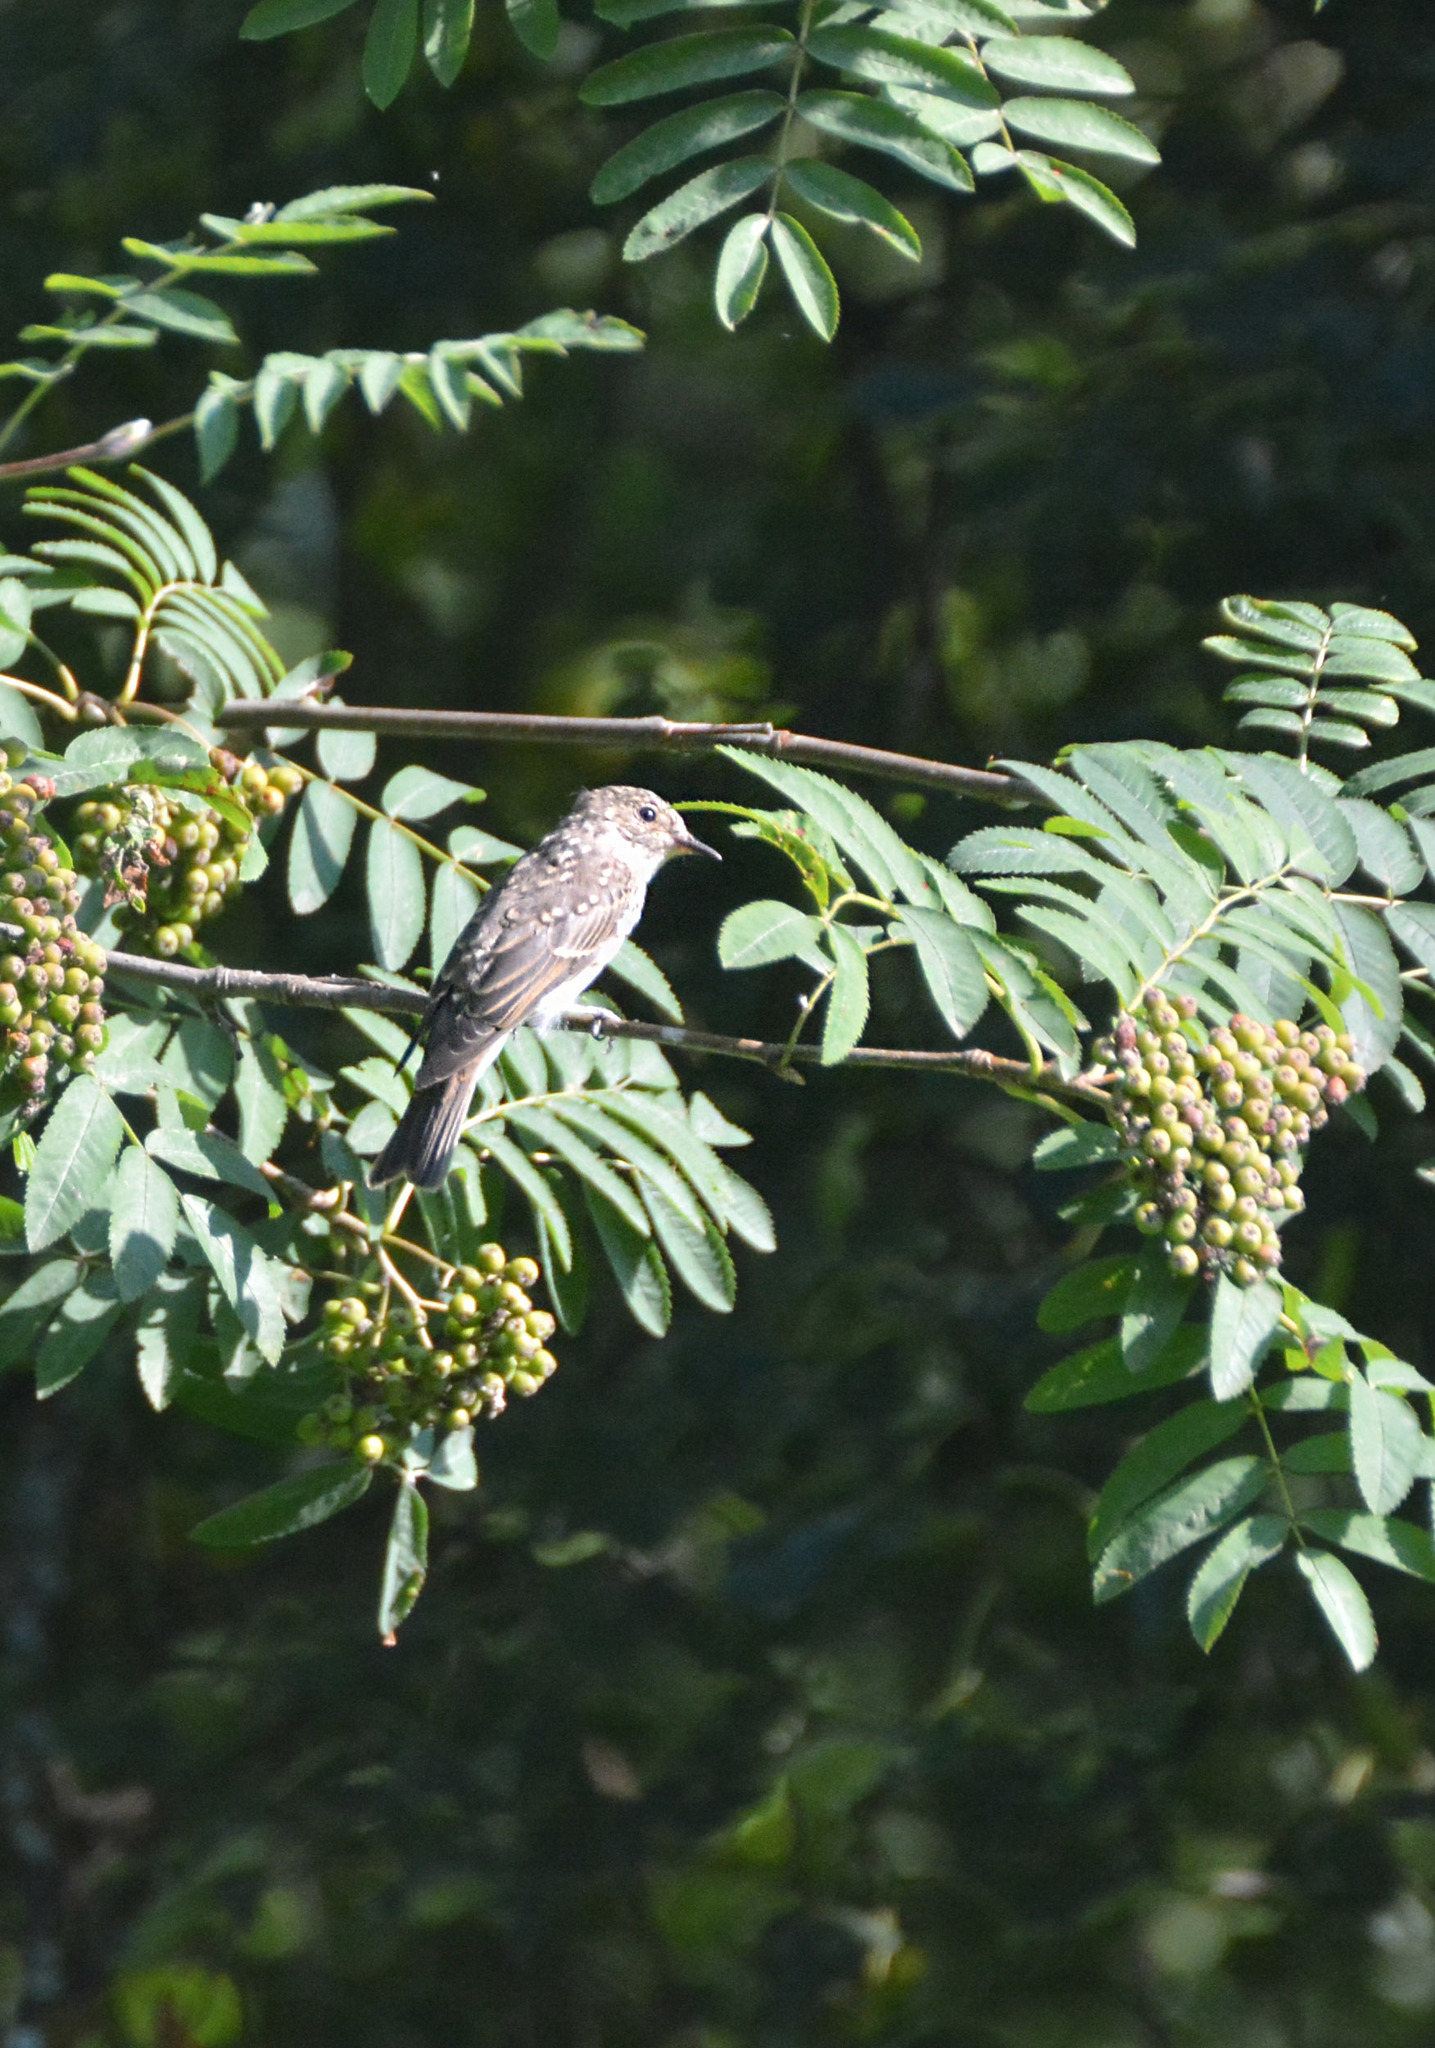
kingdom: Animalia
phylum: Chordata
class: Aves
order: Passeriformes
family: Muscicapidae
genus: Muscicapa
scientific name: Muscicapa striata
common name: Spotted flycatcher
